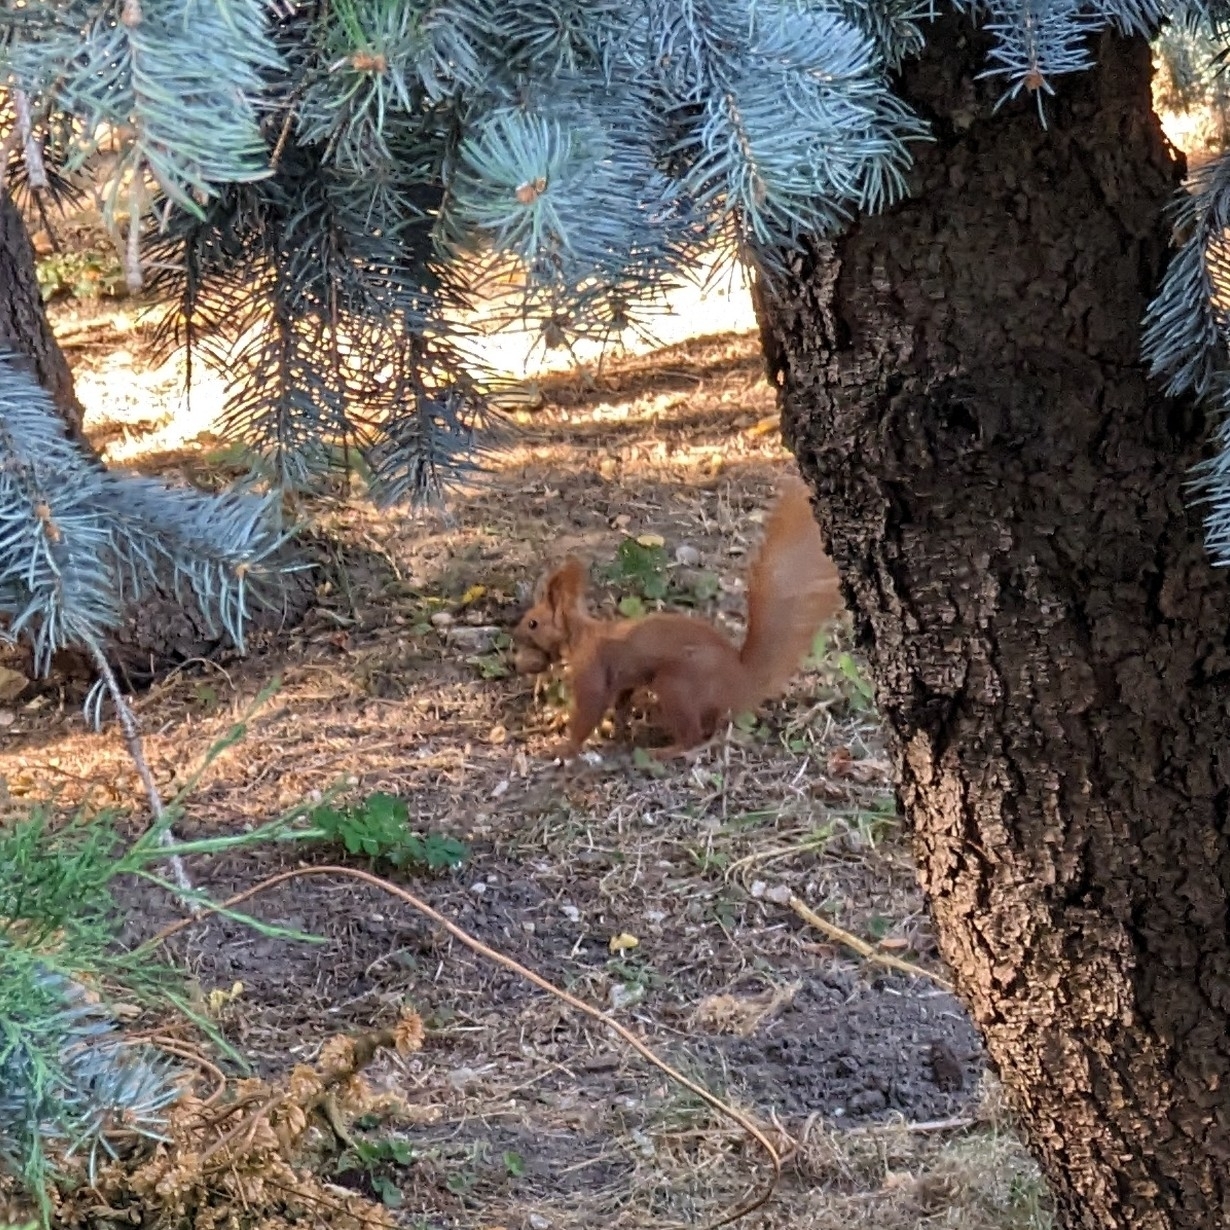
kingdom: Animalia
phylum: Chordata
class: Mammalia
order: Rodentia
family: Sciuridae
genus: Sciurus
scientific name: Sciurus vulgaris
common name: Eurasian red squirrel
